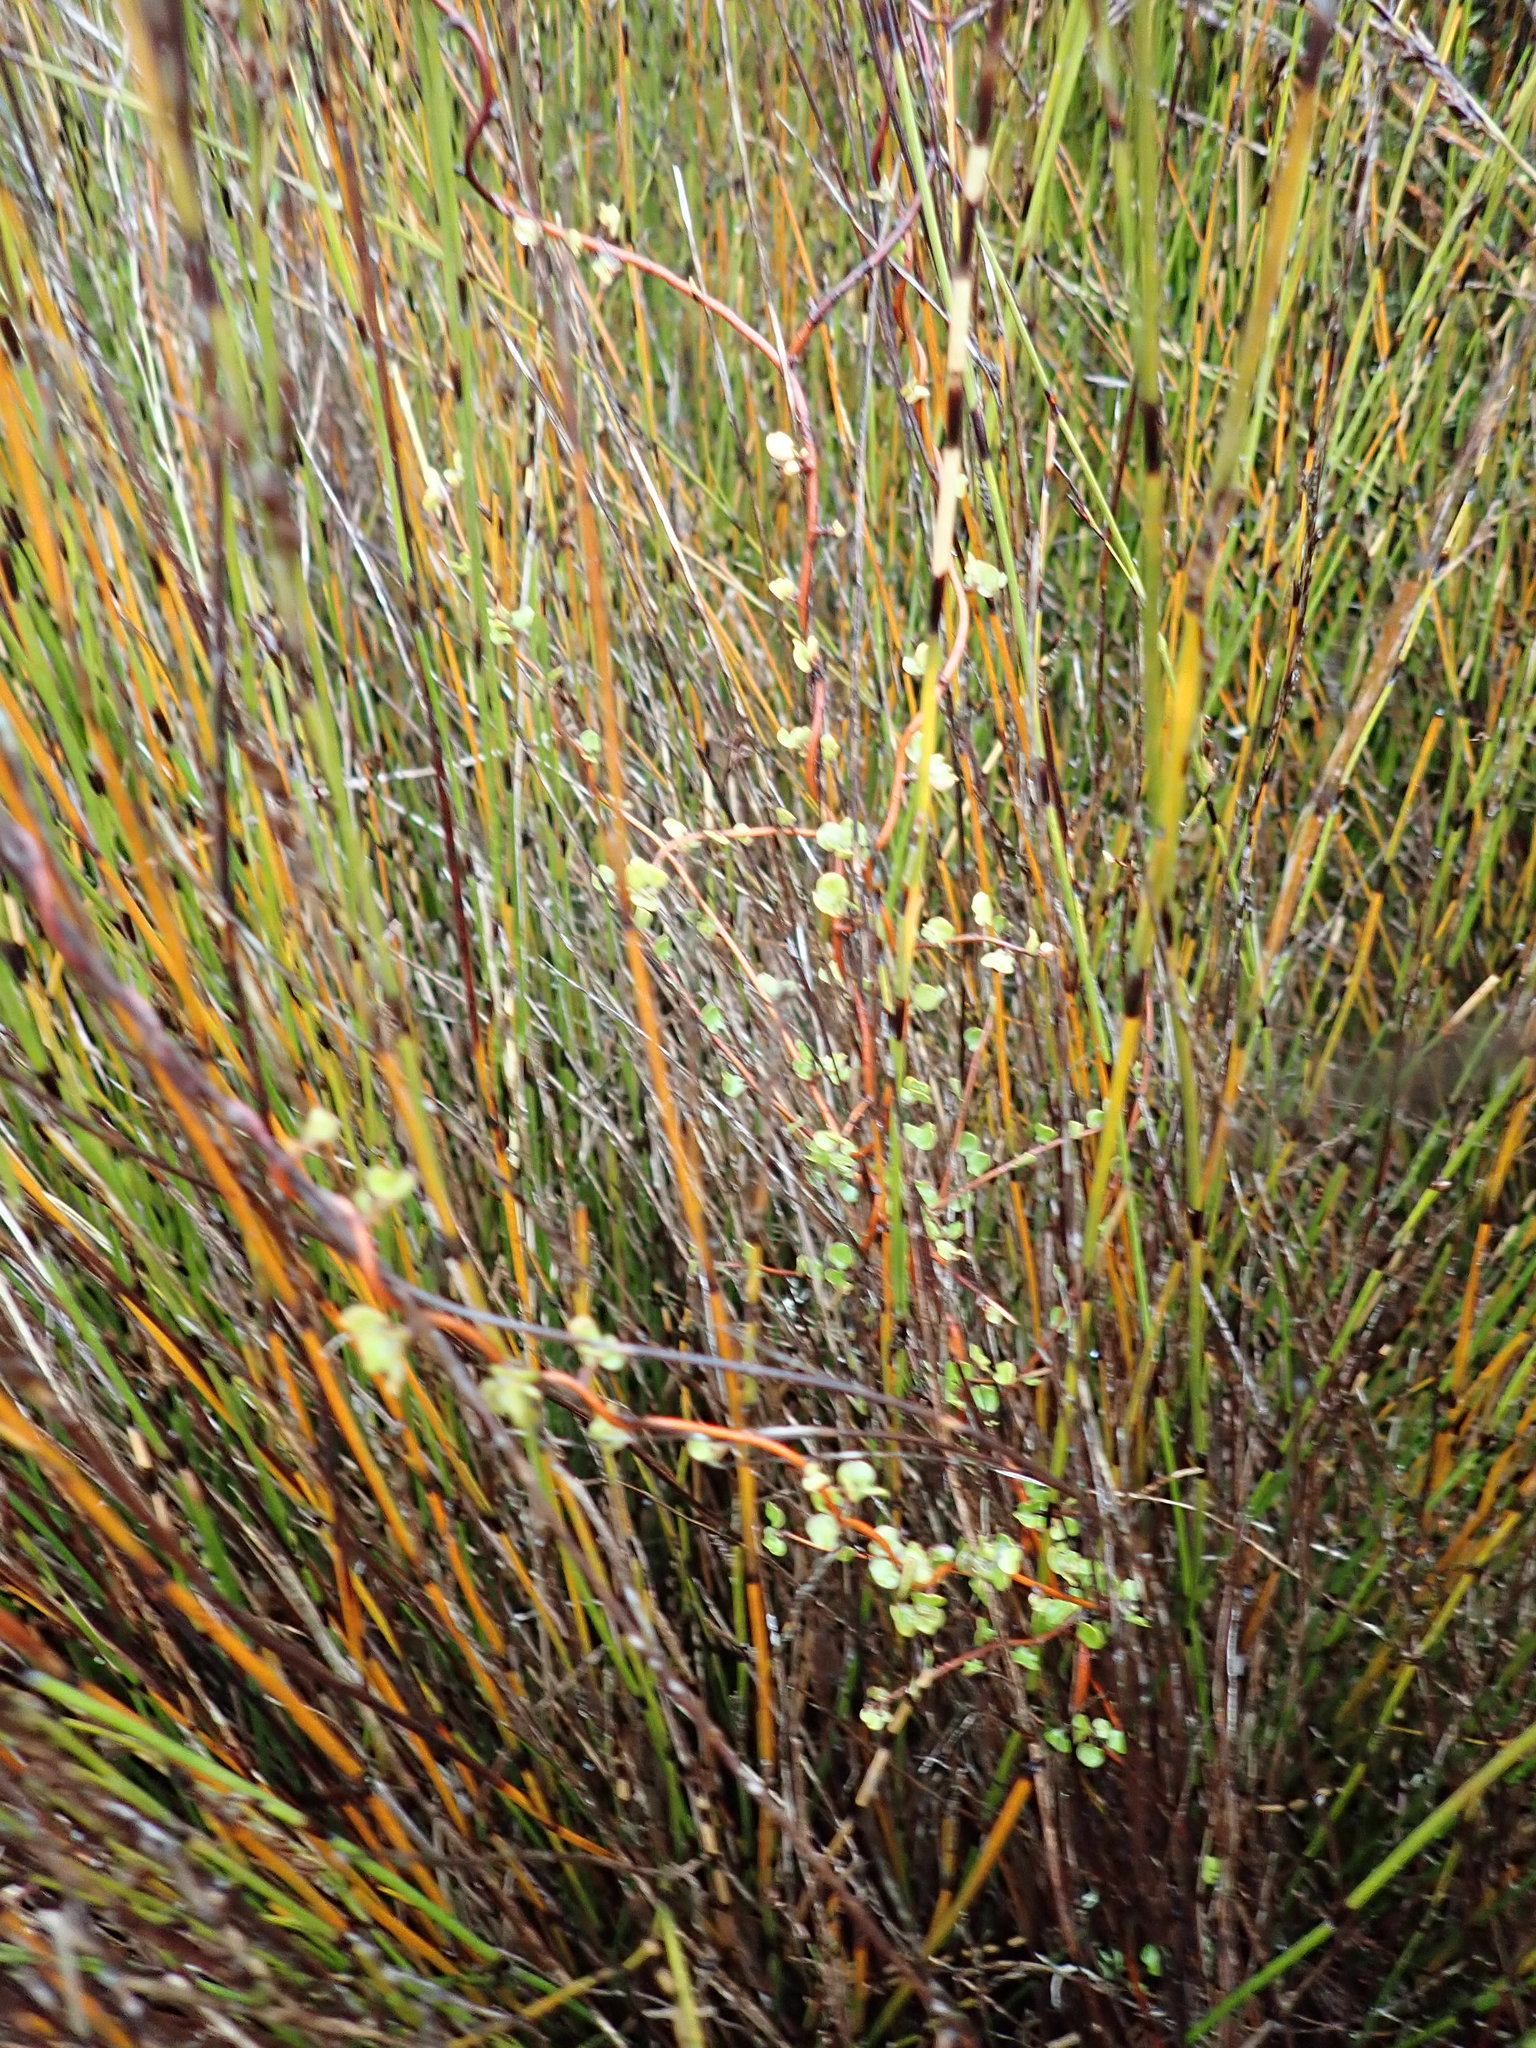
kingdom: Plantae
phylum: Tracheophyta
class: Magnoliopsida
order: Caryophyllales
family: Polygonaceae
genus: Muehlenbeckia
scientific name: Muehlenbeckia complexa
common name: Wireplant
